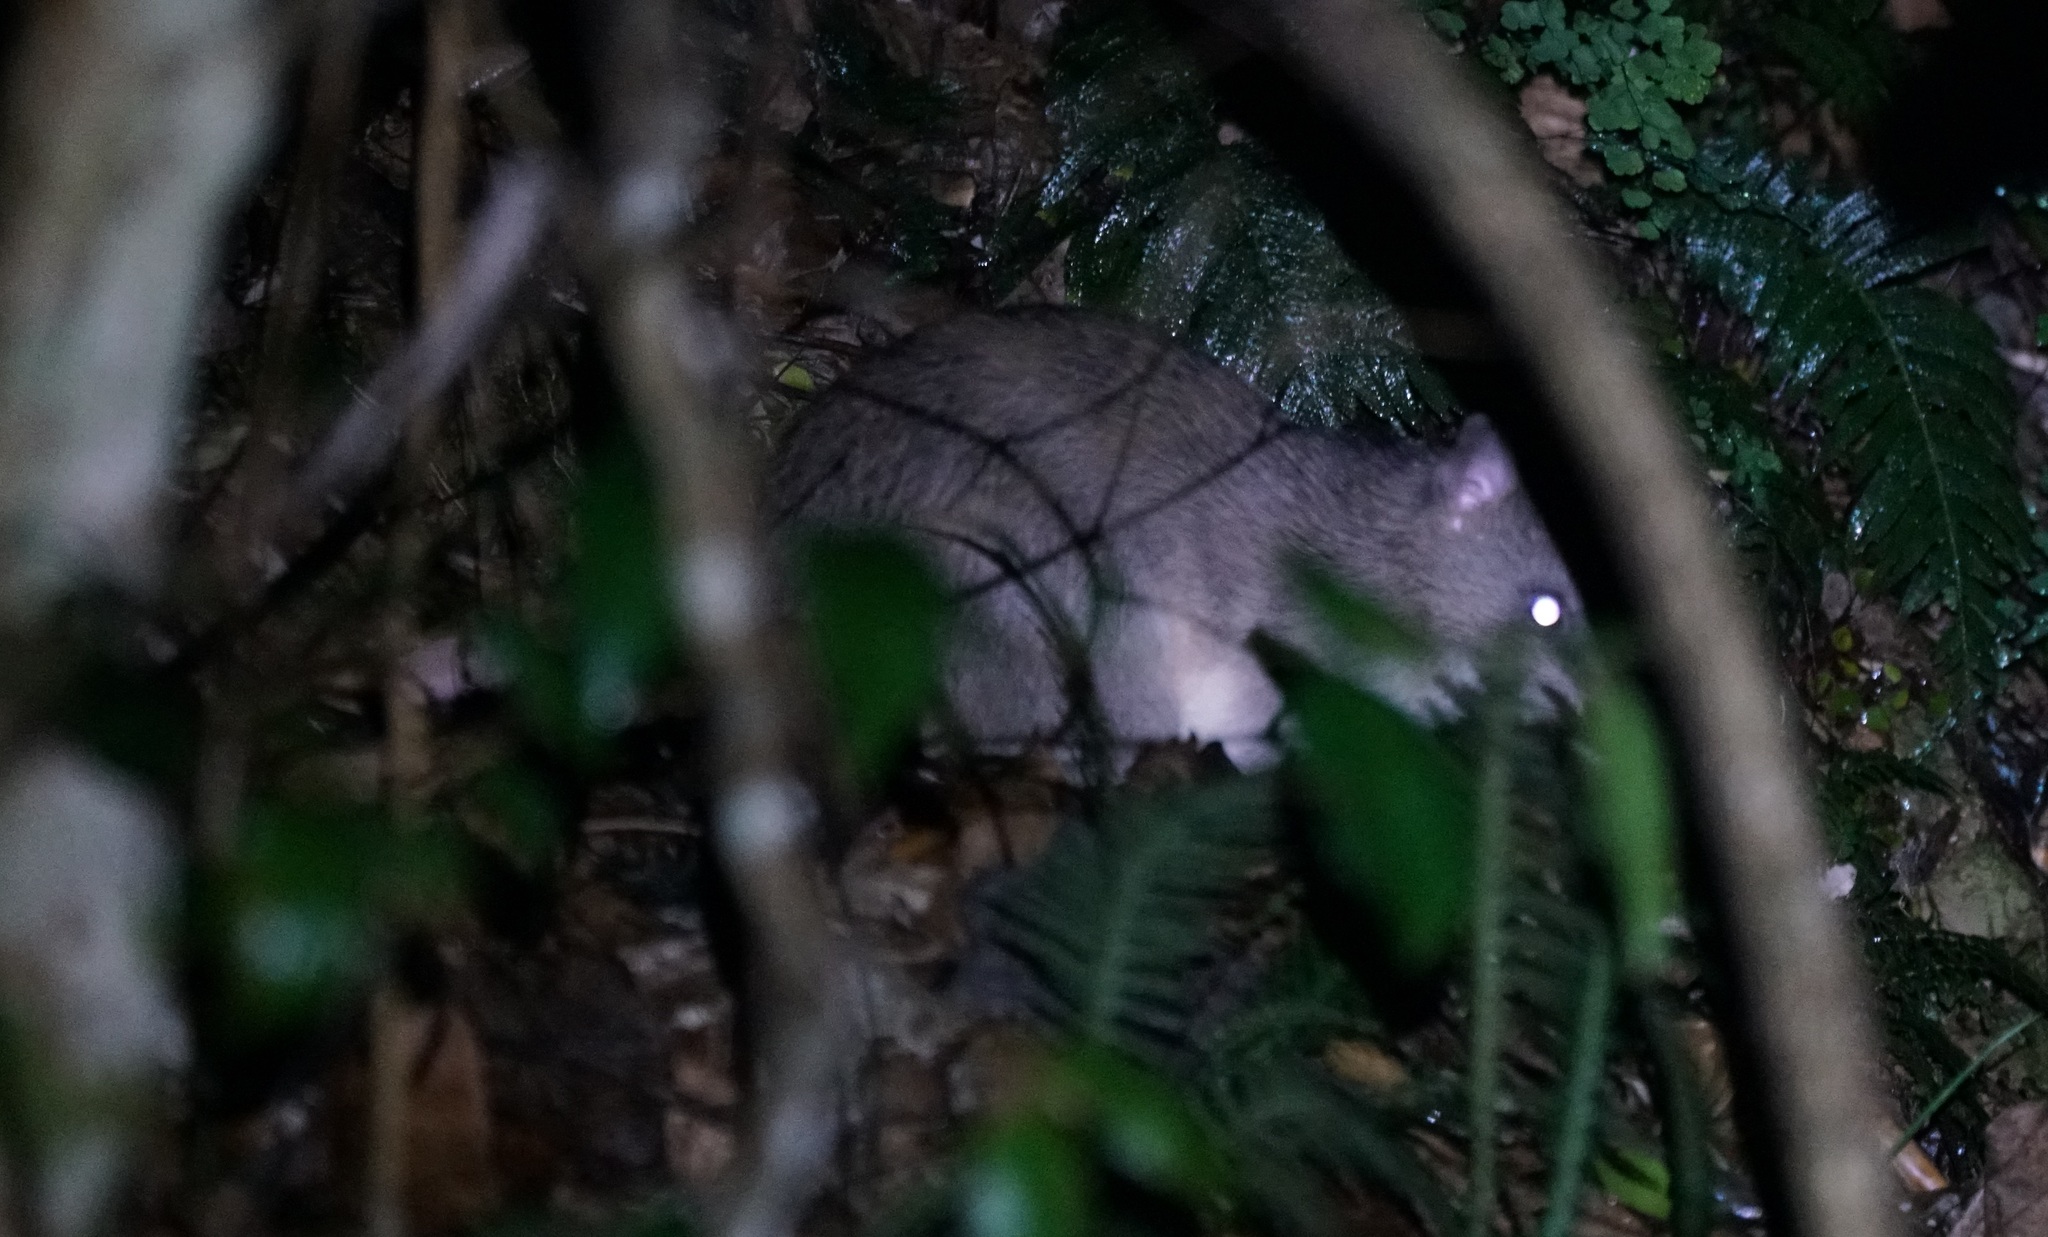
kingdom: Animalia
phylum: Chordata
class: Mammalia
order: Peramelemorphia
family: Peramelidae
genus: Perameles
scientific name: Perameles nasuta
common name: Long-nosed bandicoot
